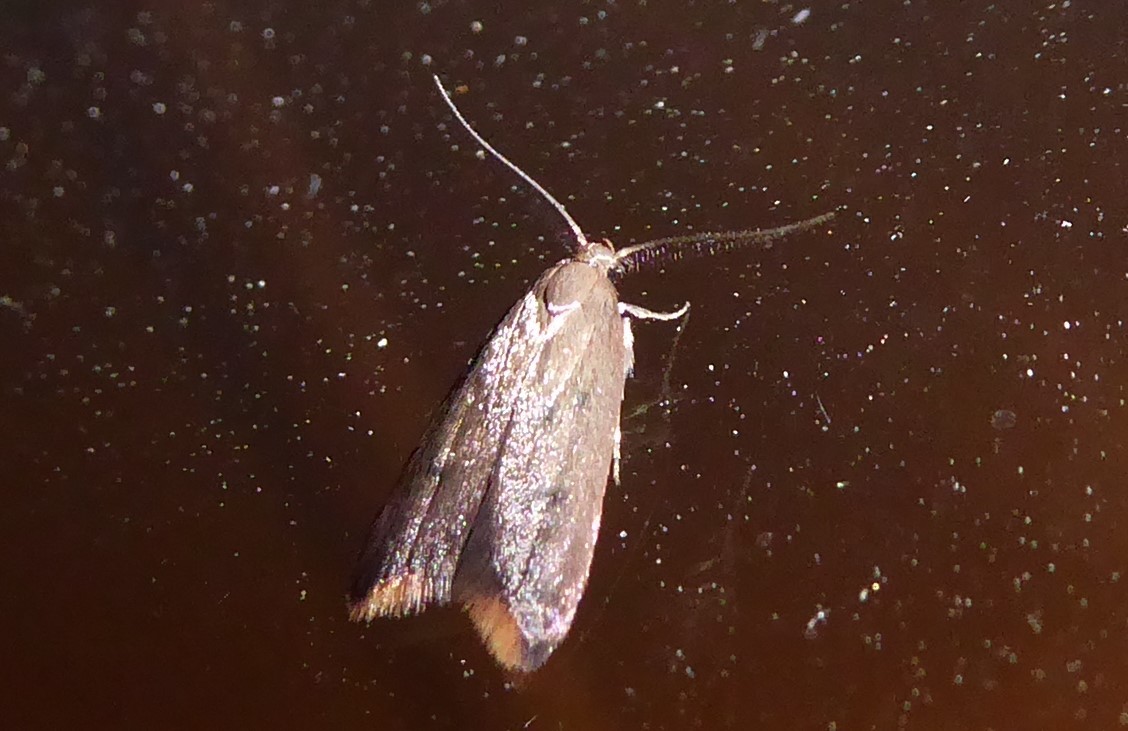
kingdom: Animalia
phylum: Arthropoda
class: Insecta
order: Lepidoptera
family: Oecophoridae
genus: Tachystola
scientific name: Tachystola acroxantha
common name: Ruddy streak
